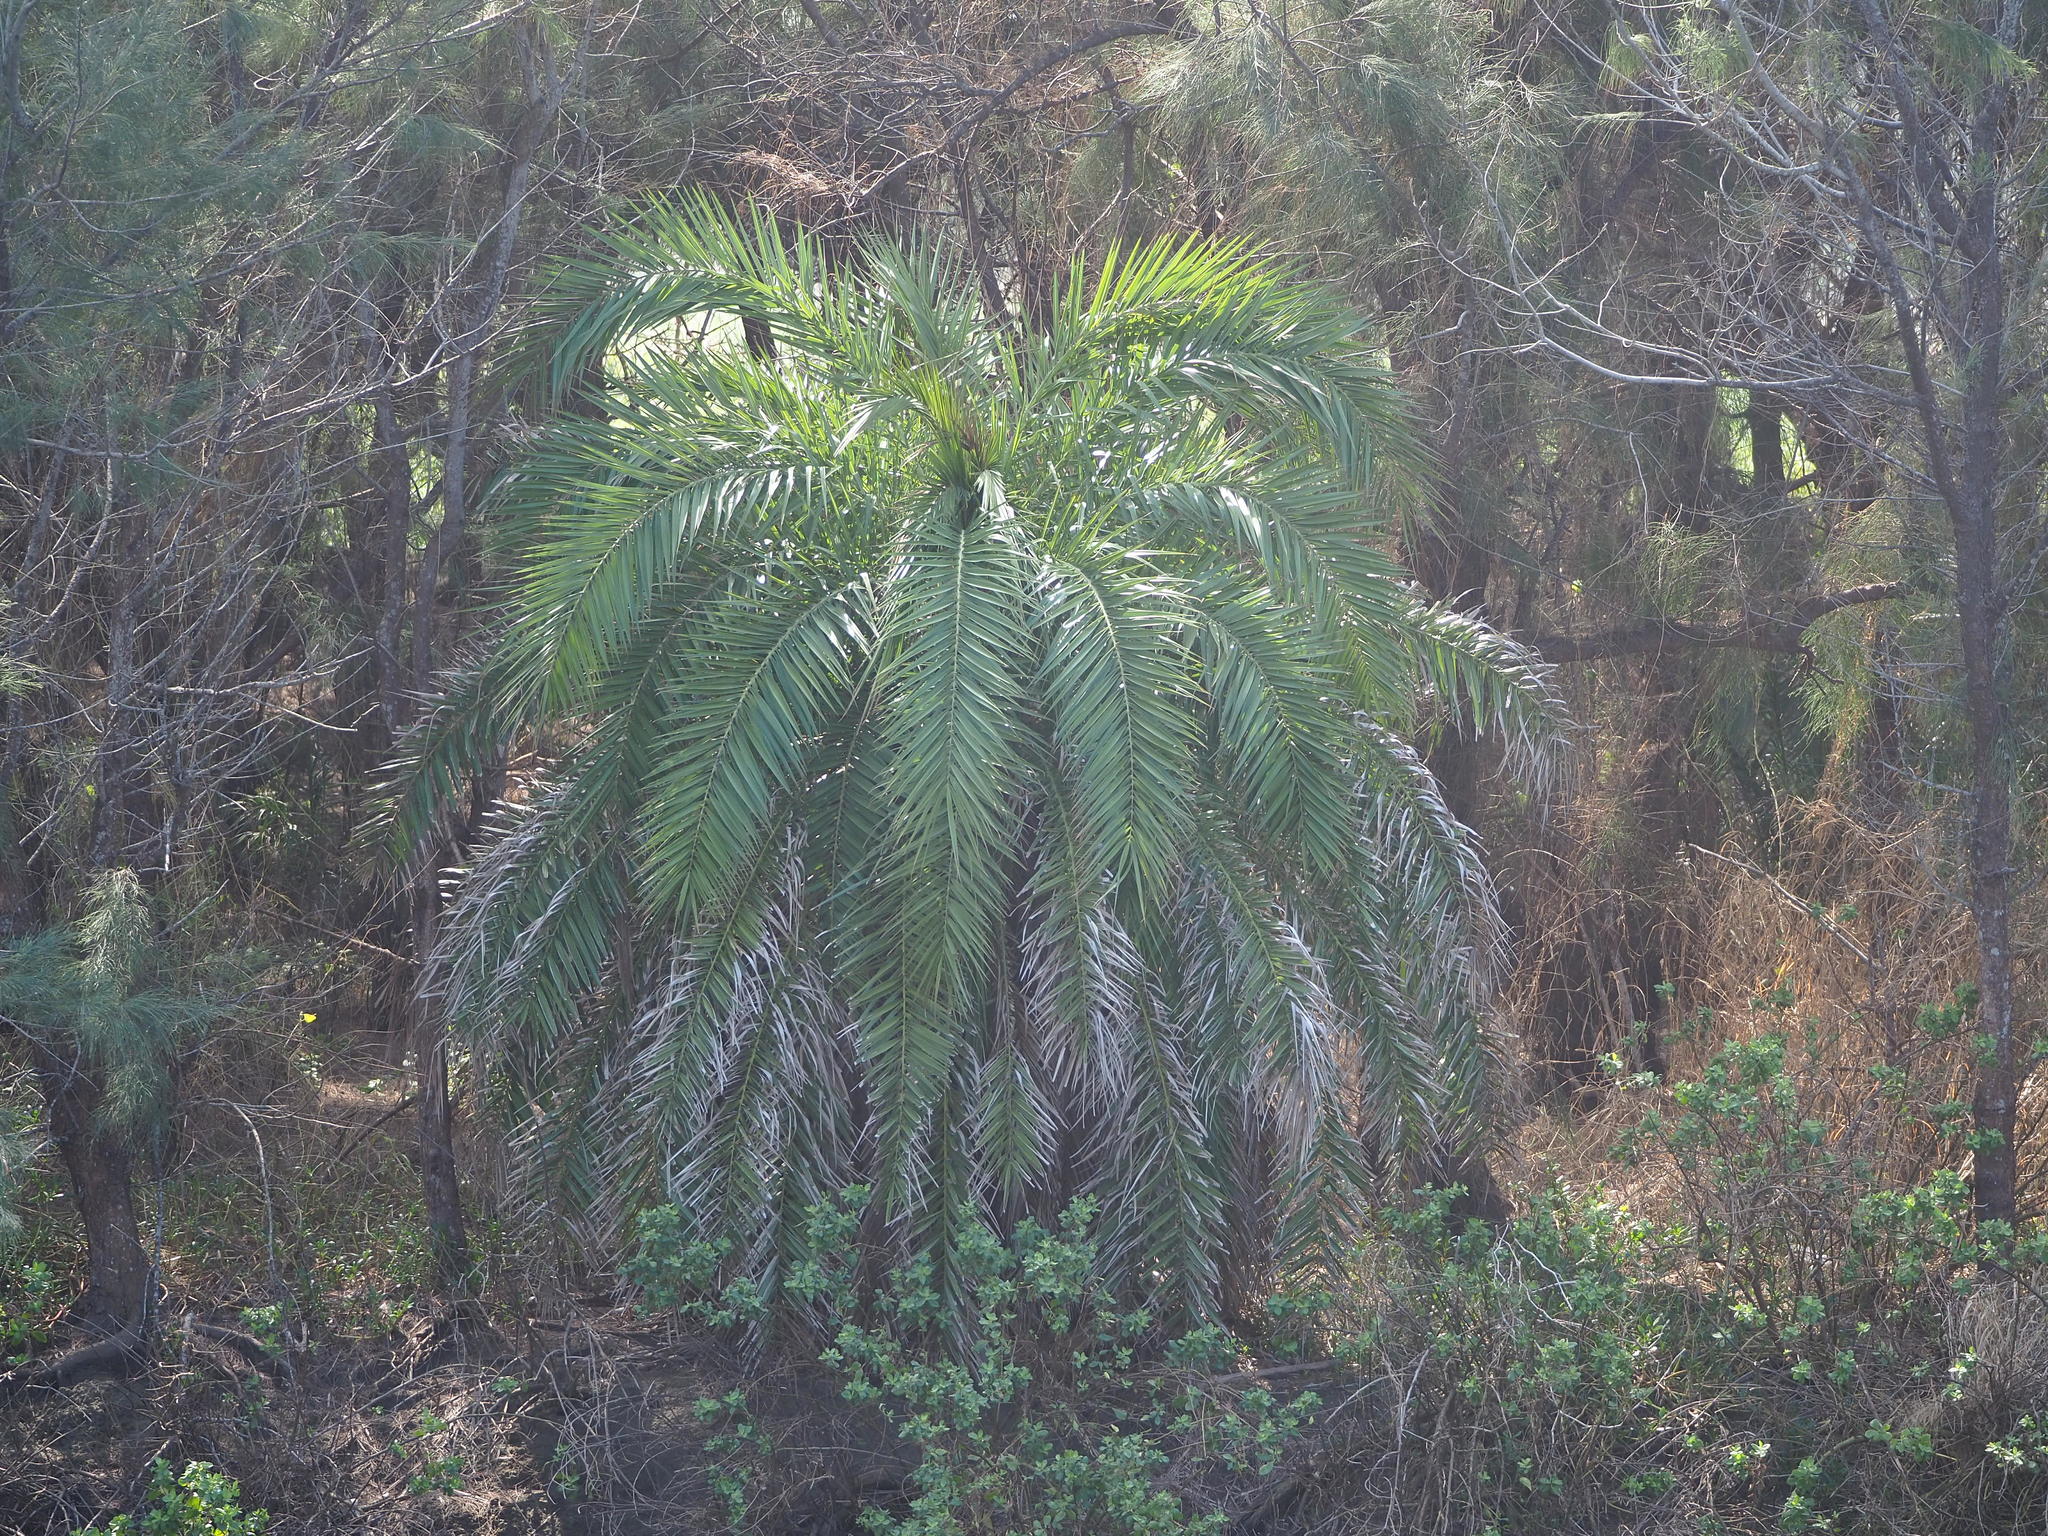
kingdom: Plantae
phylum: Tracheophyta
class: Liliopsida
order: Arecales
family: Arecaceae
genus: Phoenix
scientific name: Phoenix loureiroi
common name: Loureiro's palm
